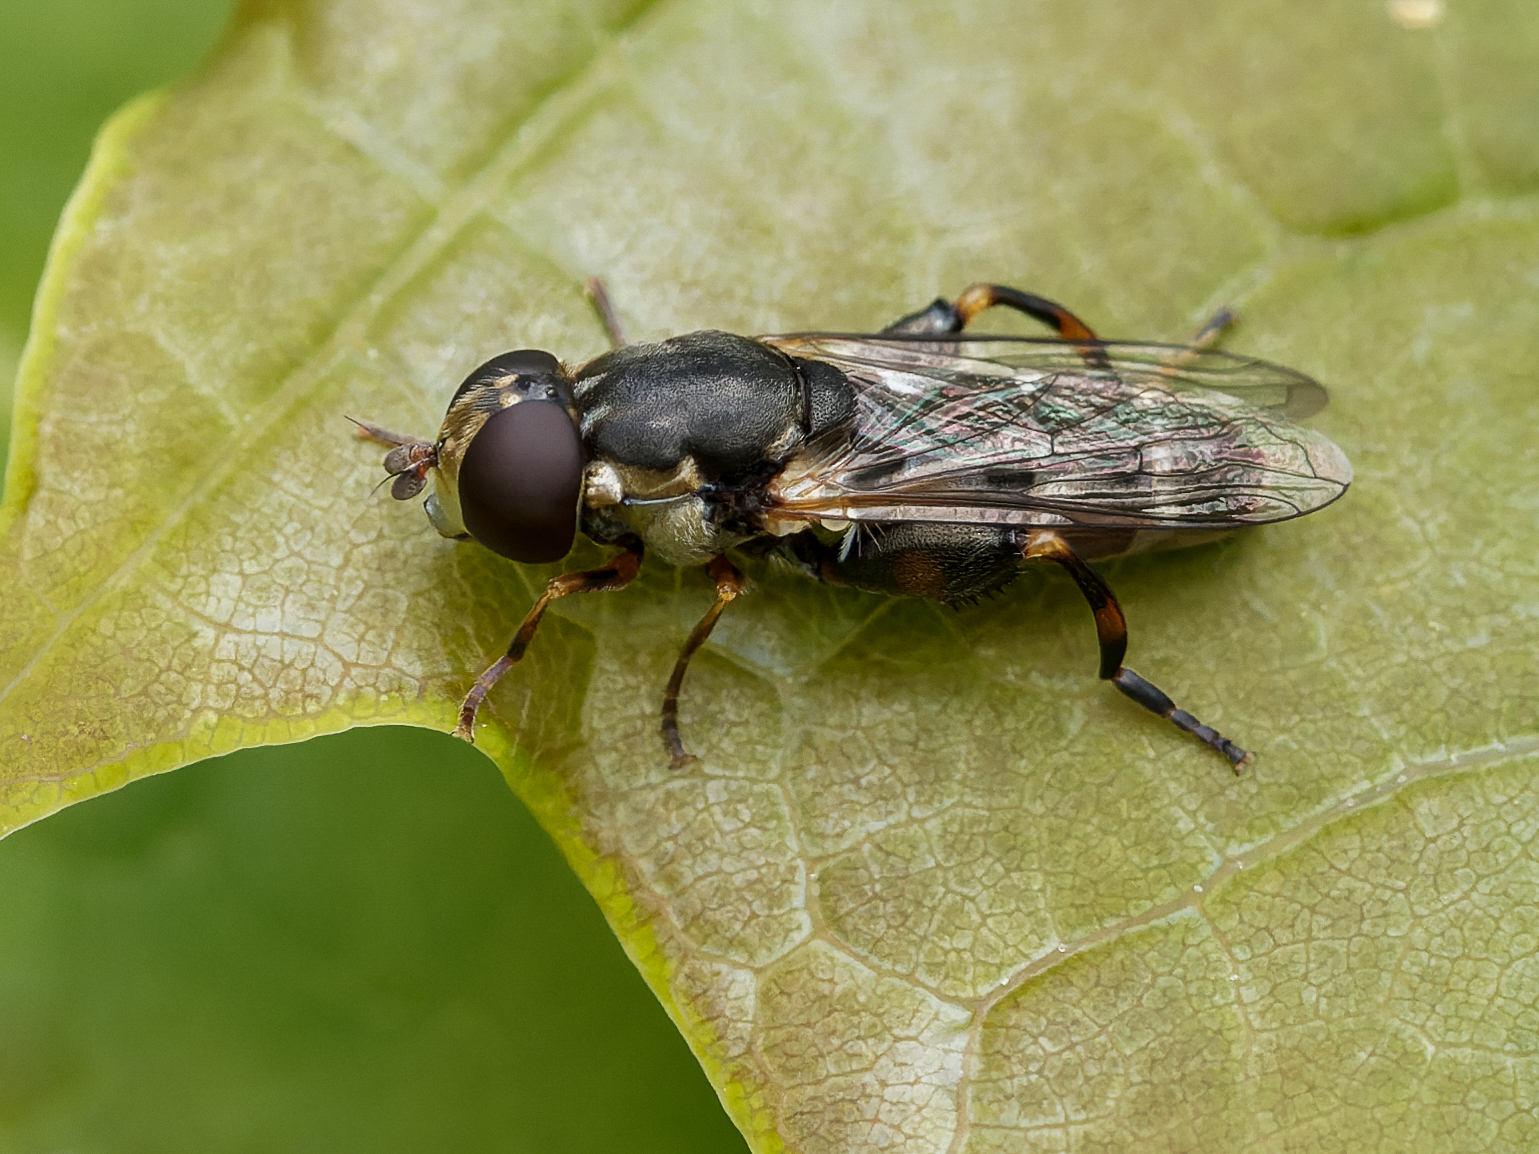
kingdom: Animalia
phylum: Arthropoda
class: Insecta
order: Diptera
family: Syrphidae
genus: Syritta
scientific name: Syritta pipiens
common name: Hover fly
